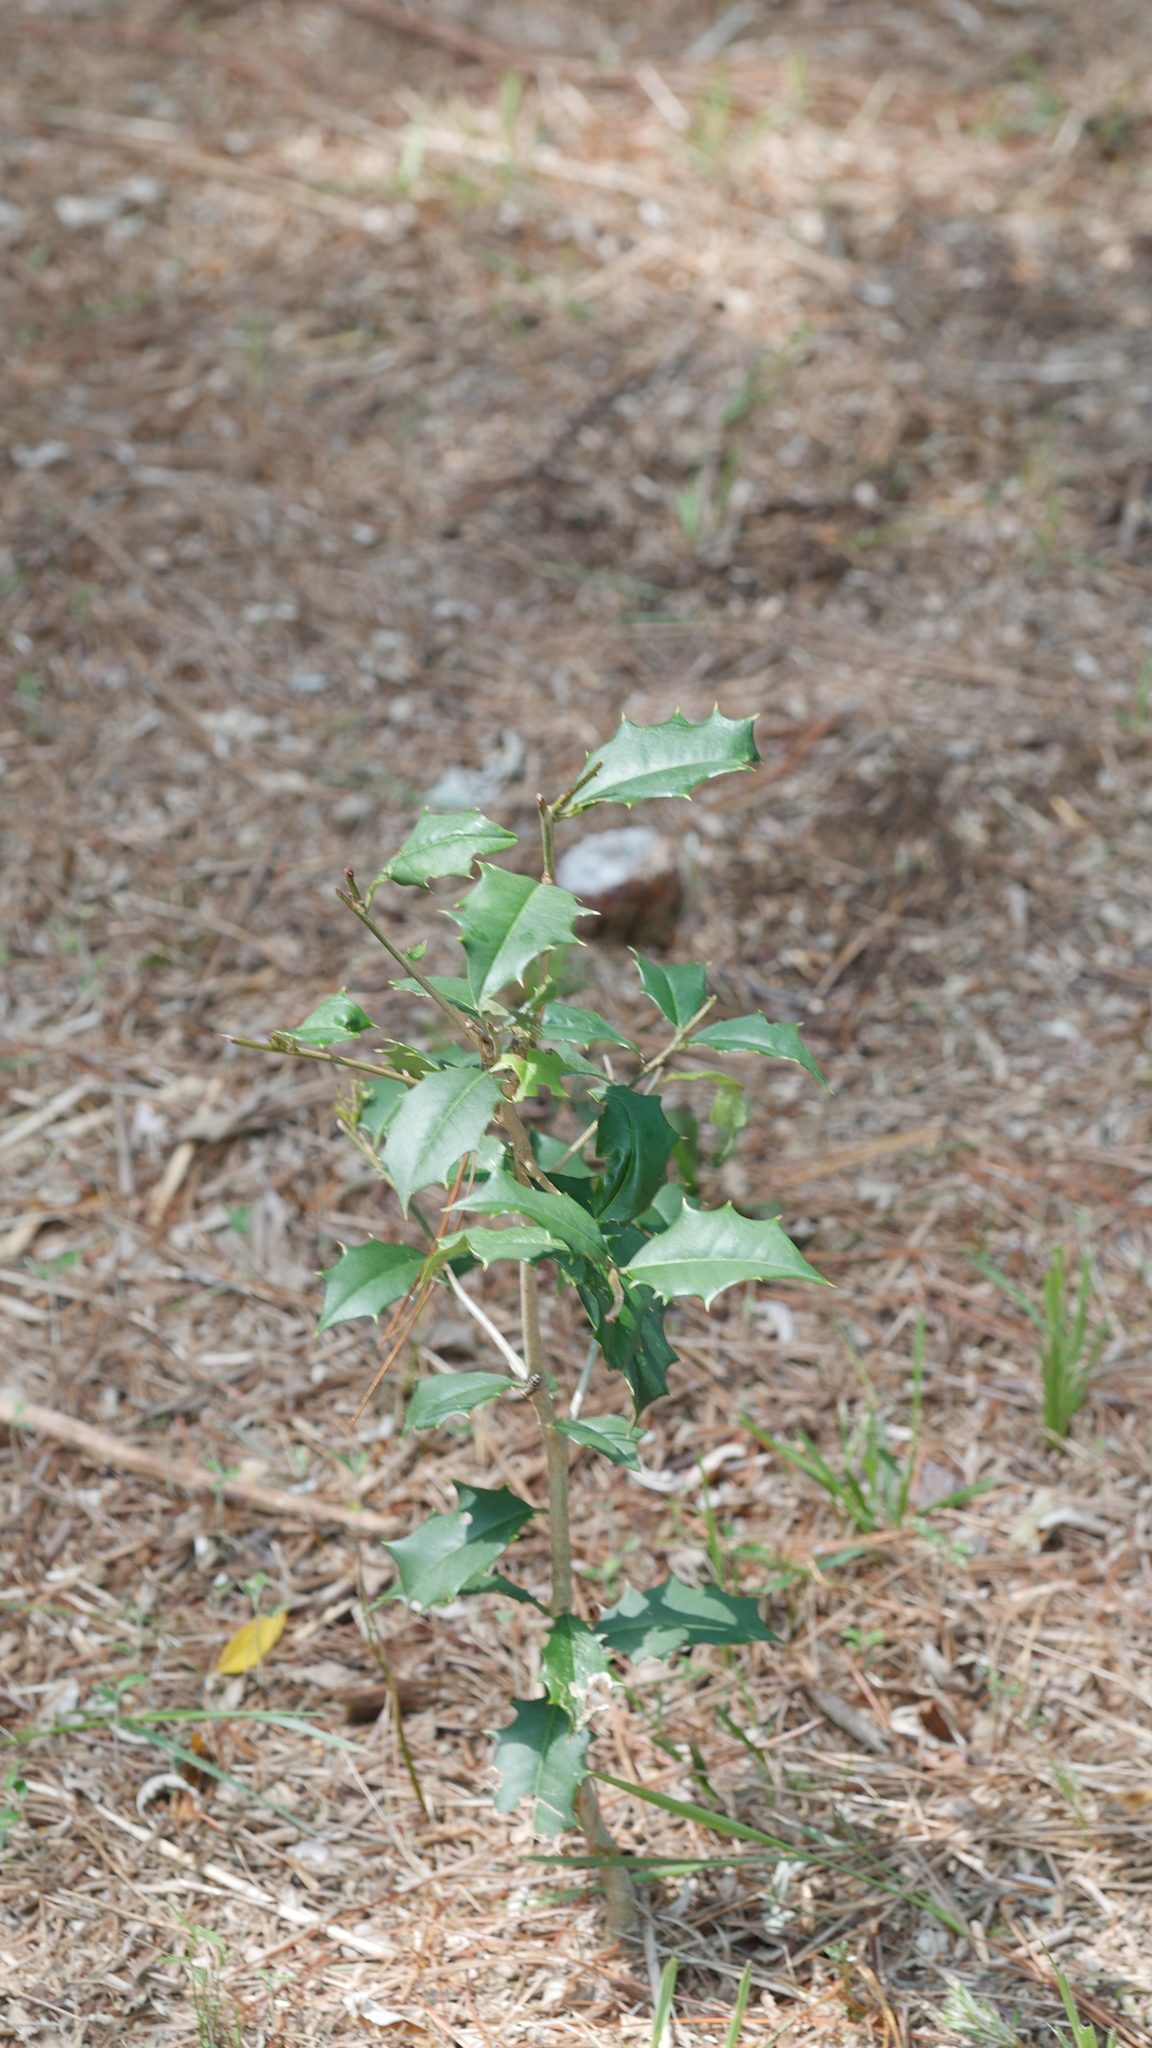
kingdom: Plantae
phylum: Tracheophyta
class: Magnoliopsida
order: Aquifoliales
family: Aquifoliaceae
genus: Ilex
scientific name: Ilex opaca
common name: American holly
